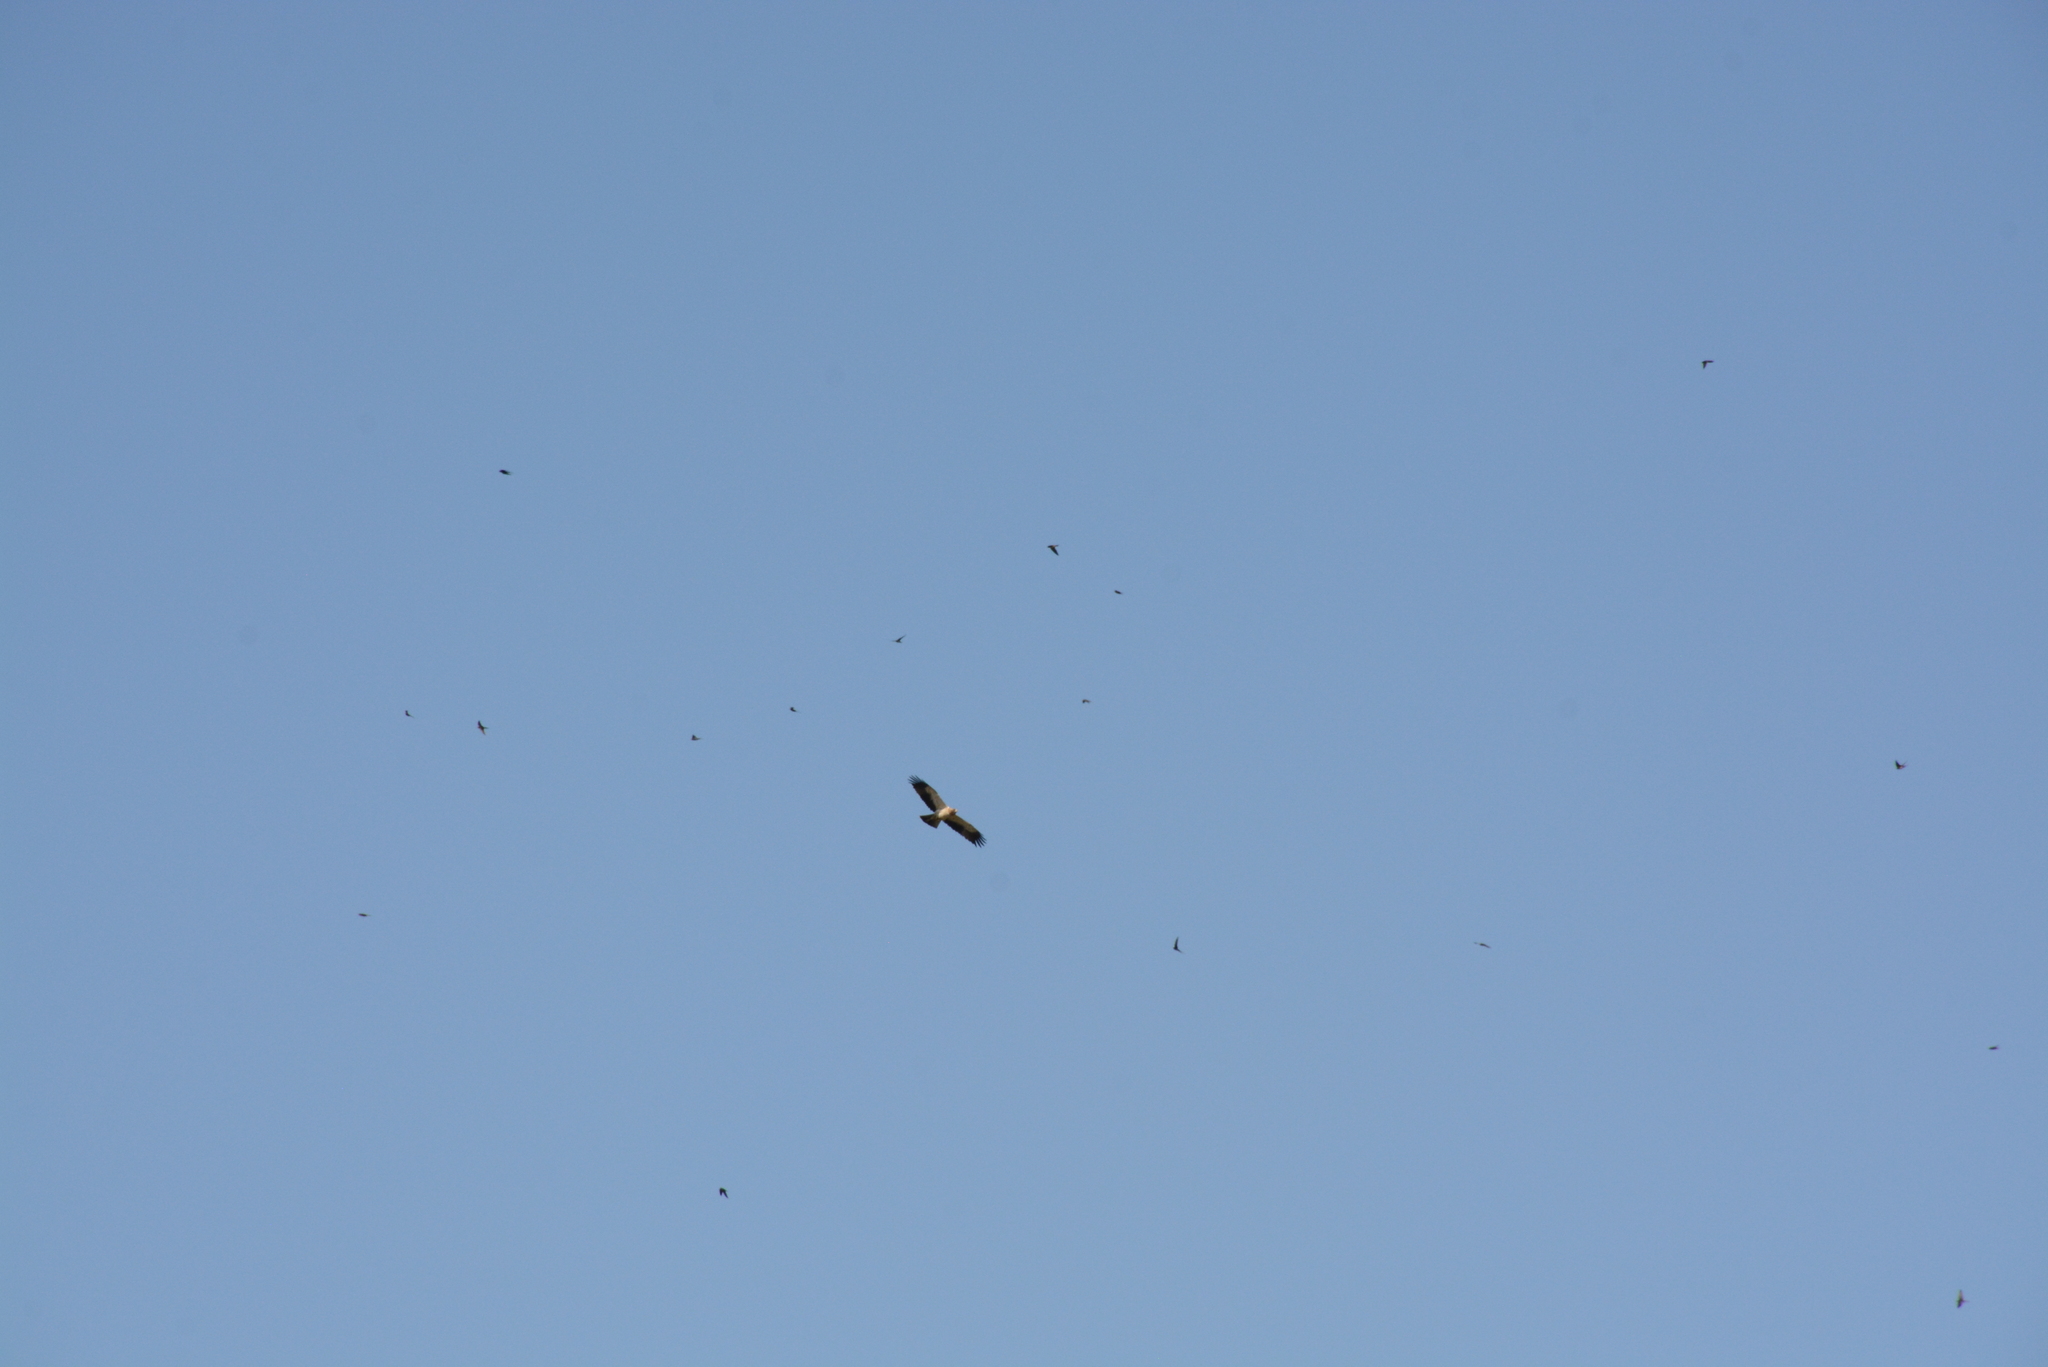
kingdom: Animalia
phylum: Chordata
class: Aves
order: Accipitriformes
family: Accipitridae
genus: Hieraaetus
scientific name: Hieraaetus pennatus
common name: Booted eagle
